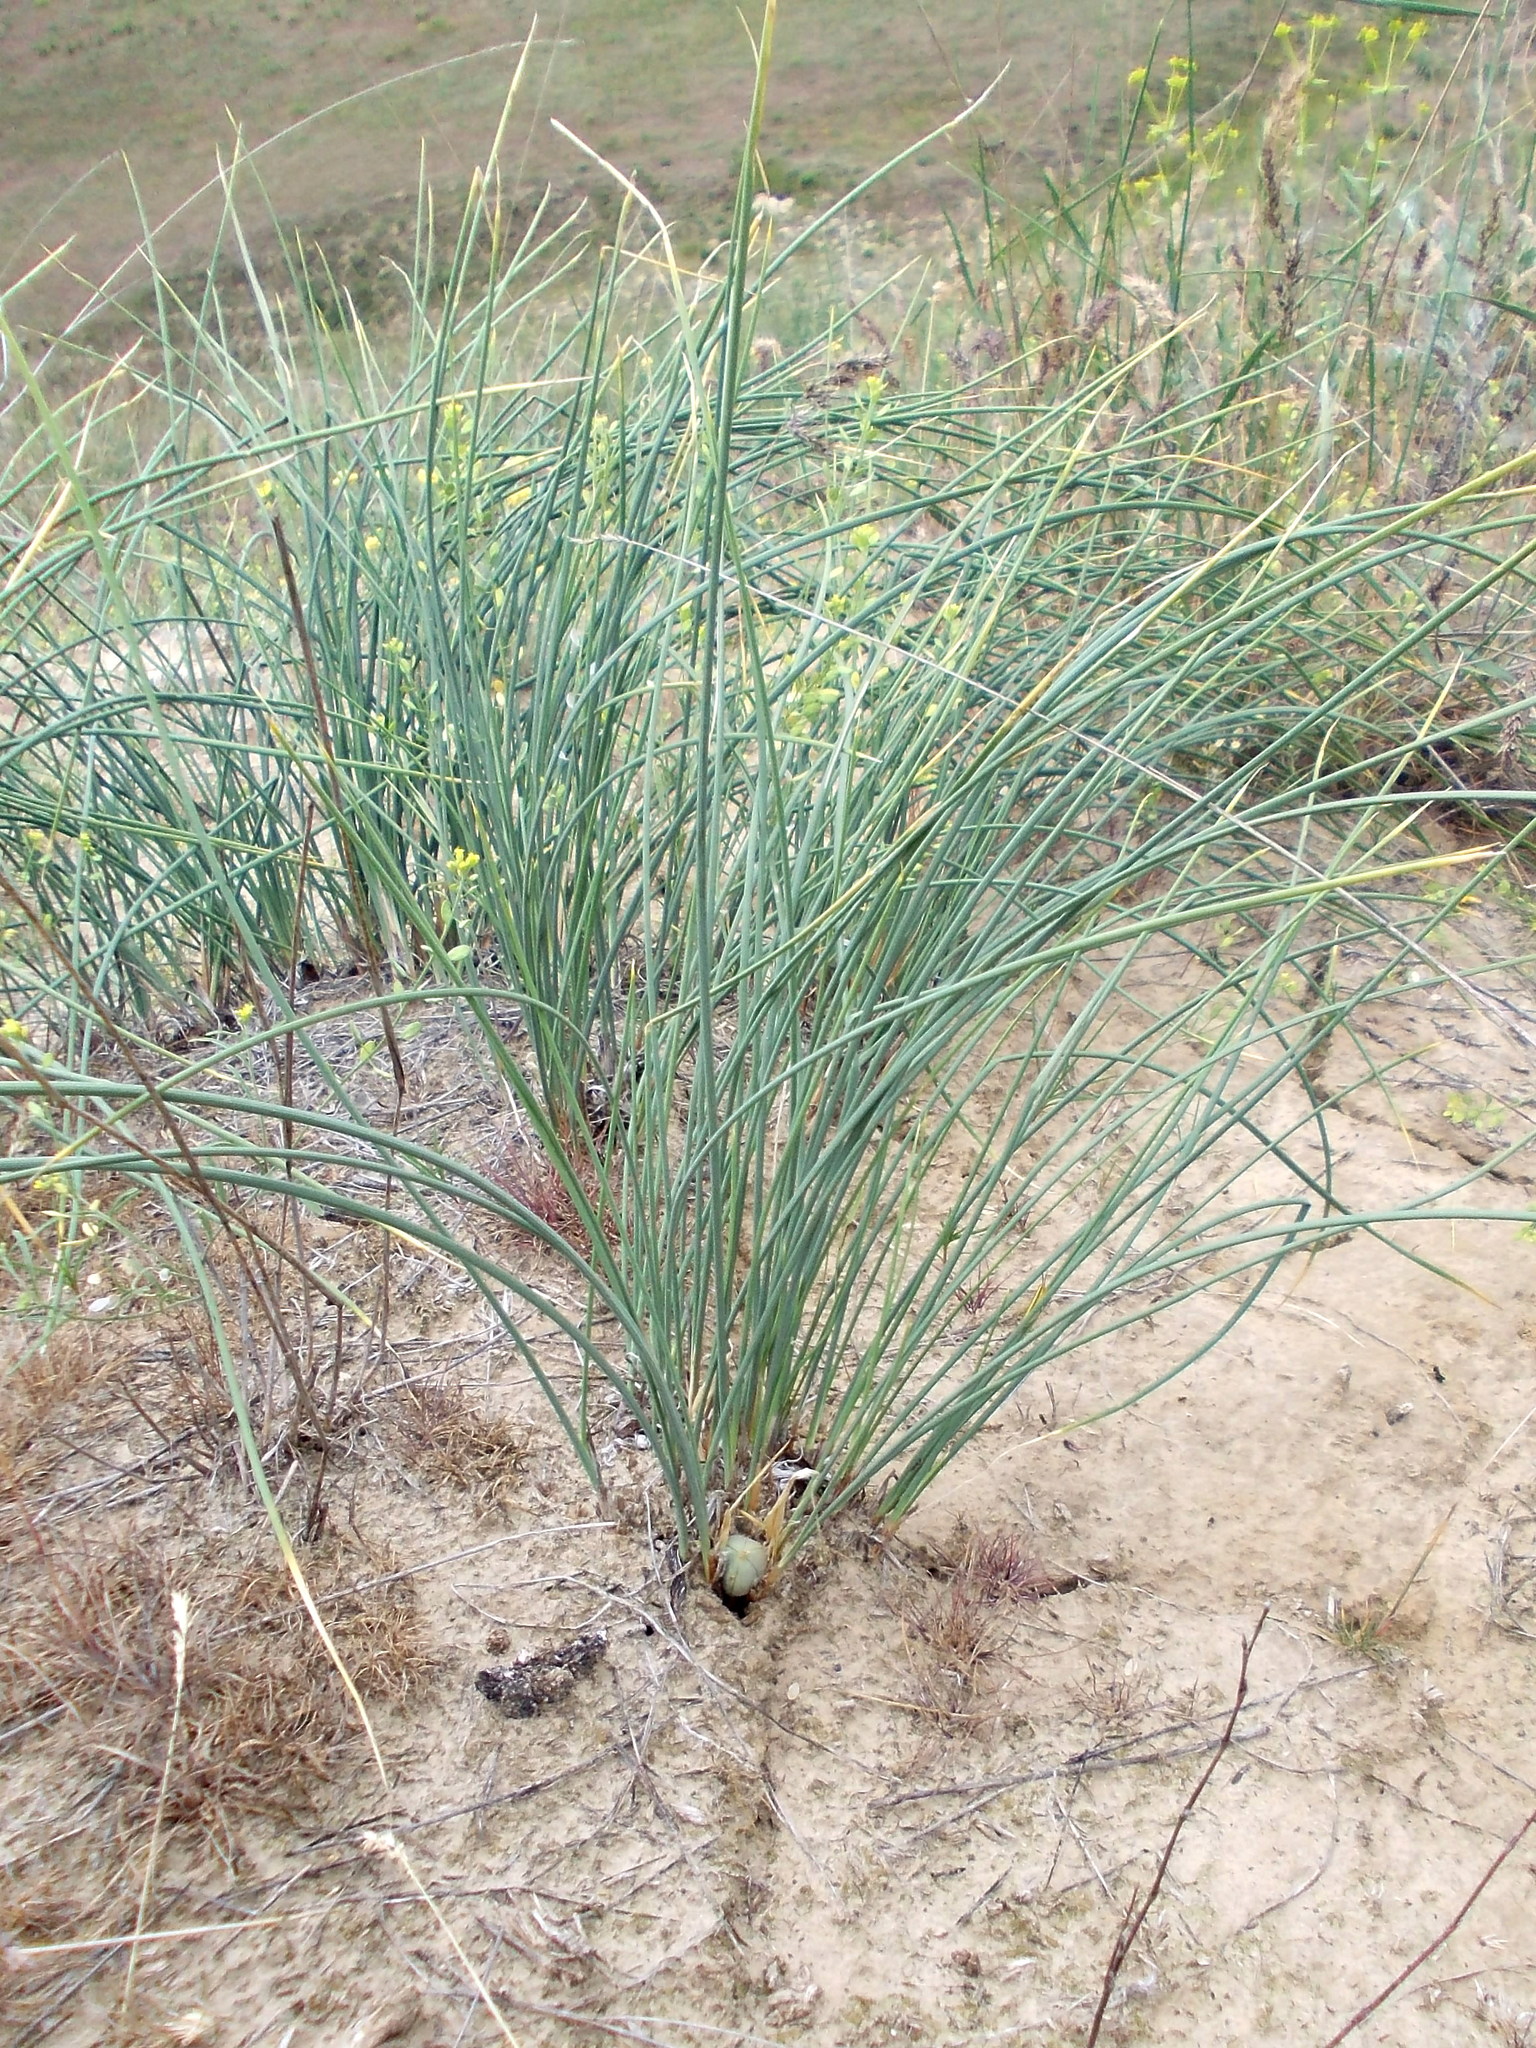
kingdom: Plantae
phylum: Tracheophyta
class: Liliopsida
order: Asparagales
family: Iridaceae
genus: Iris
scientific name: Iris tenuifolia
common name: Slender-leaf iris
